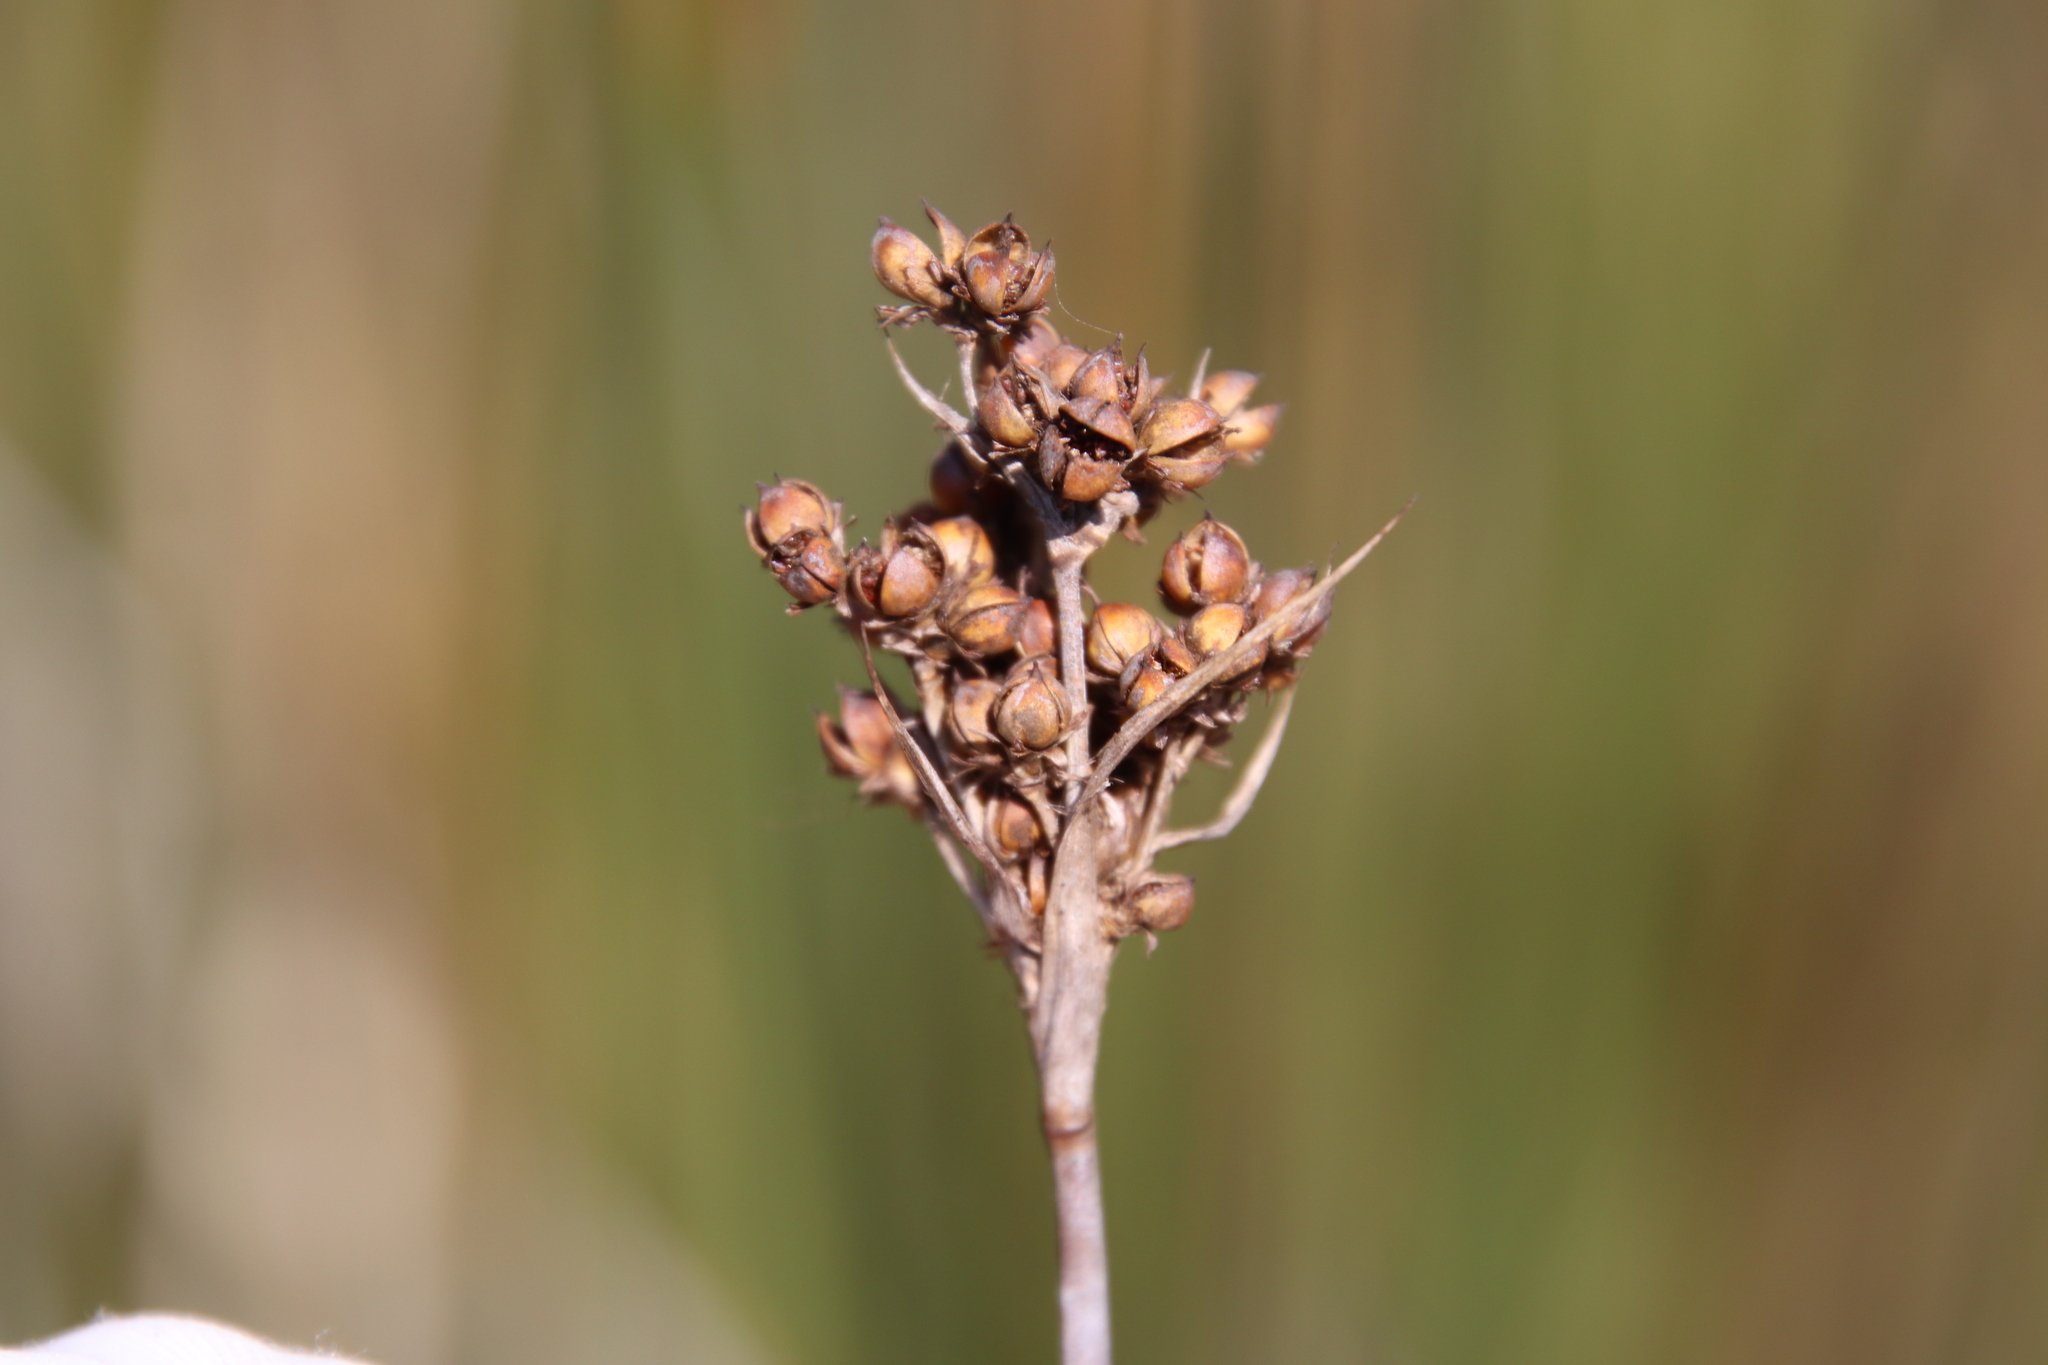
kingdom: Plantae
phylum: Tracheophyta
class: Liliopsida
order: Poales
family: Juncaceae
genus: Juncus
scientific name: Juncus acutus
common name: Sharp rush
